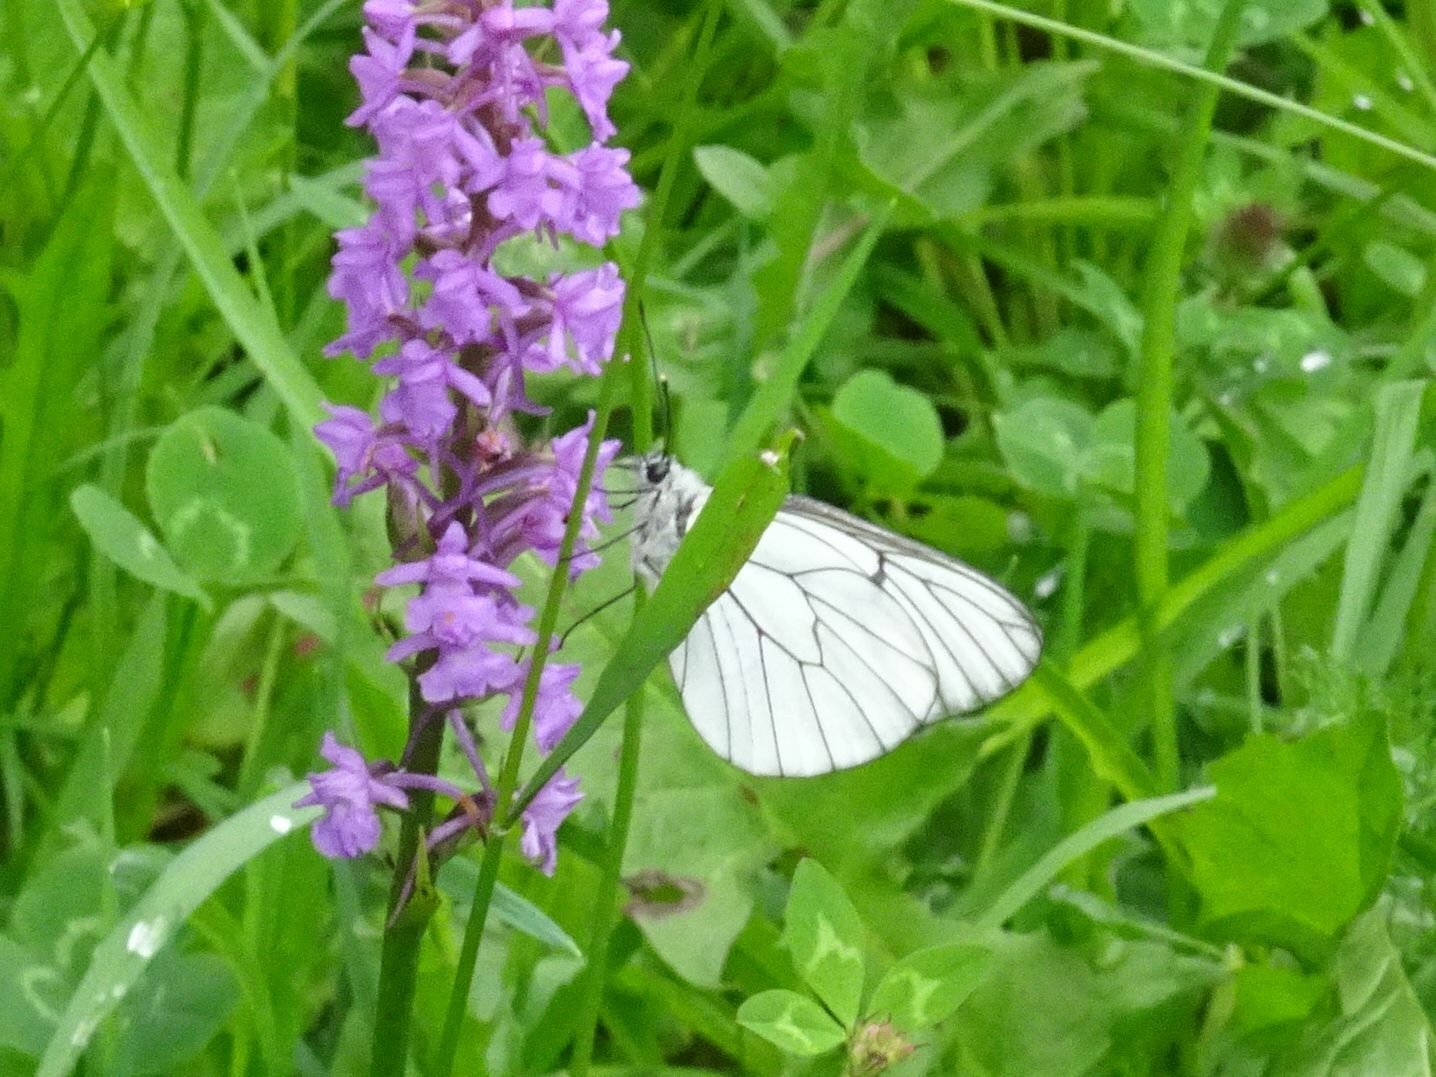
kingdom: Animalia
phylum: Arthropoda
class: Insecta
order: Lepidoptera
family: Pieridae
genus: Aporia
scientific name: Aporia crataegi
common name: Black-veined white
